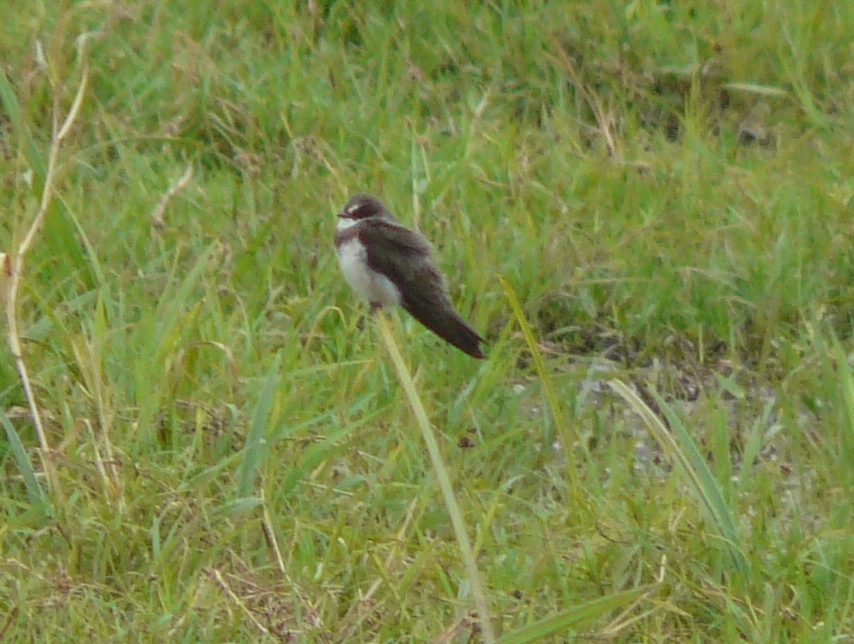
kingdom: Animalia
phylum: Chordata
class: Aves
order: Passeriformes
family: Hirundinidae
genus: Riparia
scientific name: Riparia cincta
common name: Banded martin
